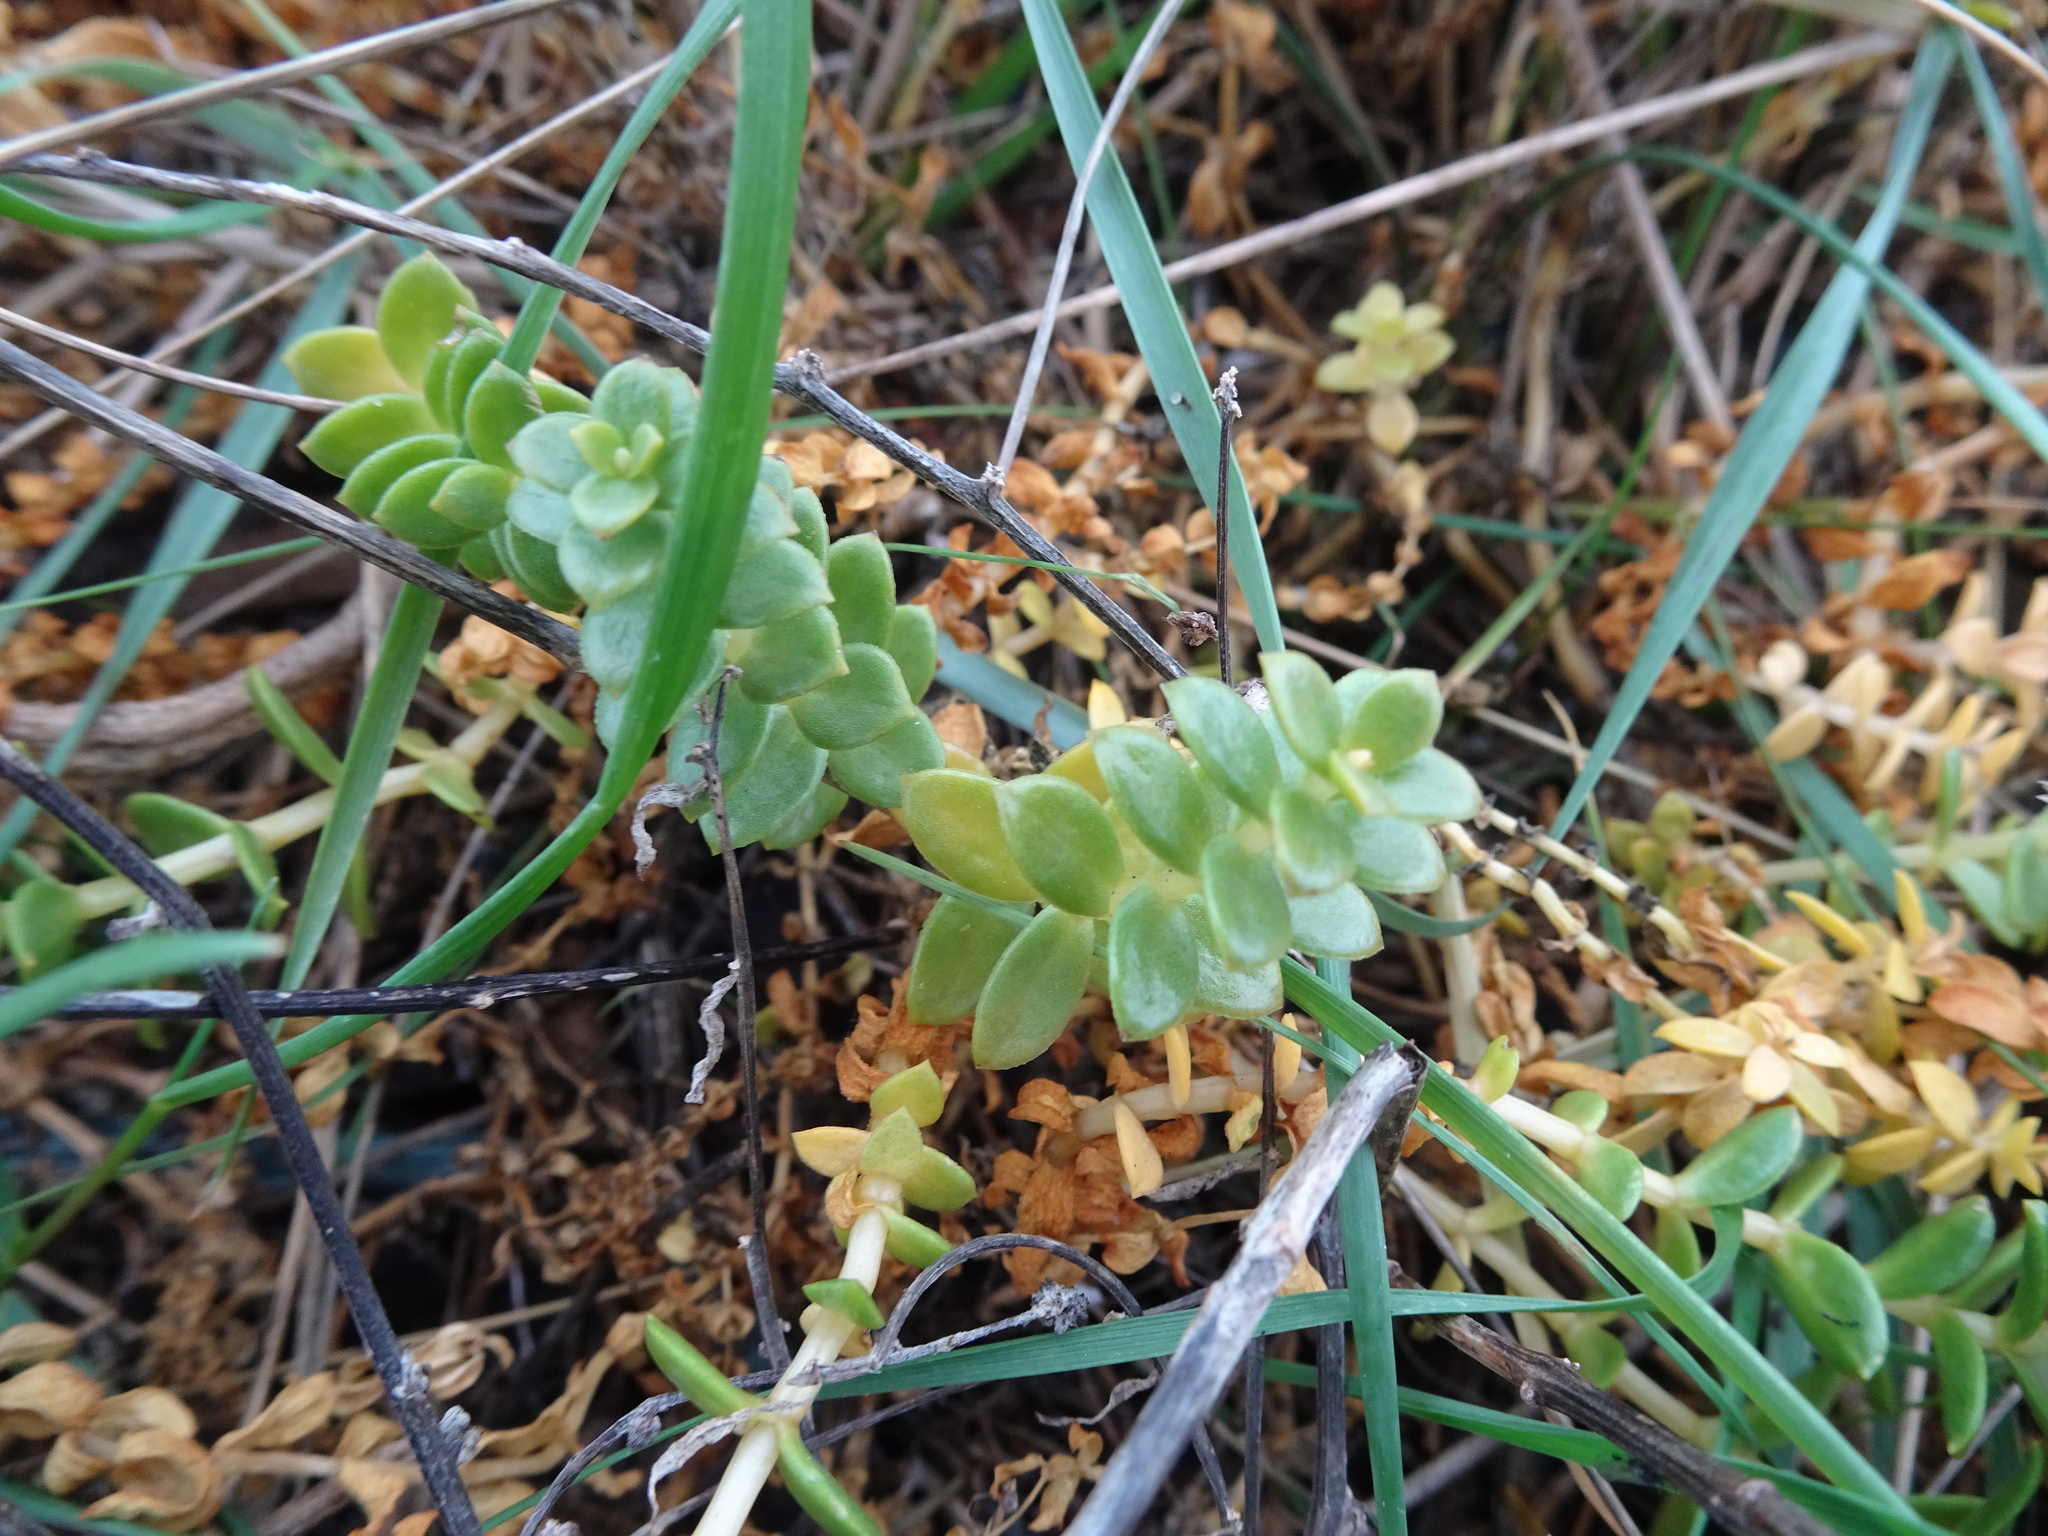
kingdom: Plantae
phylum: Tracheophyta
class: Magnoliopsida
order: Caryophyllales
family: Caryophyllaceae
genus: Honckenya
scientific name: Honckenya peploides
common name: Sea sandwort
